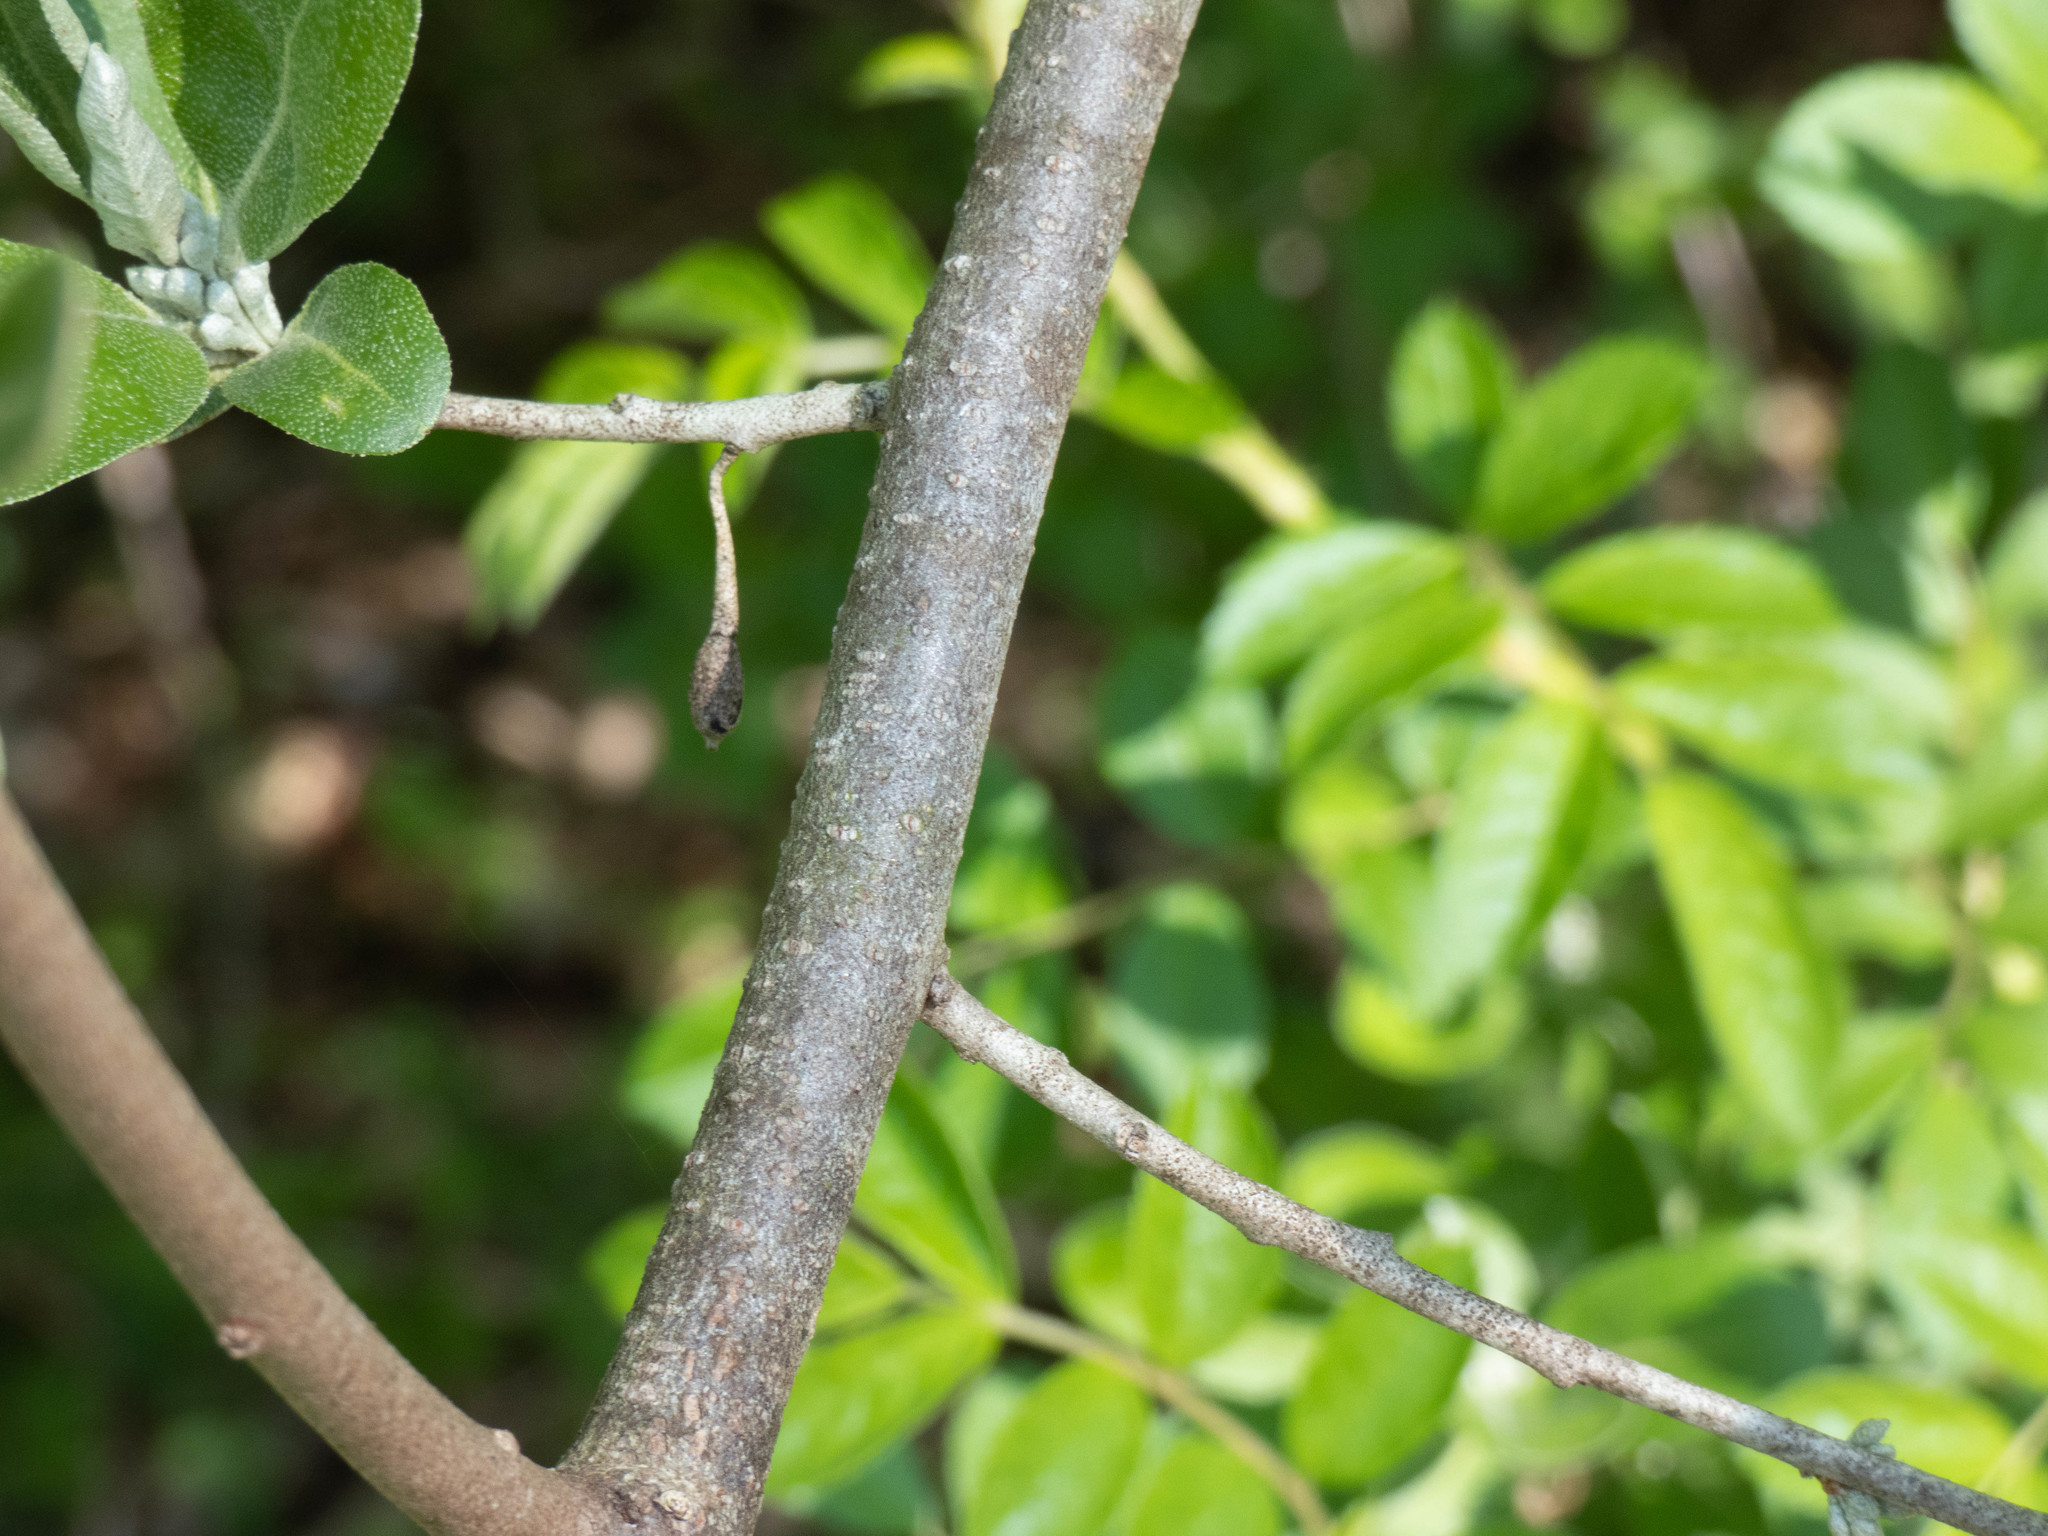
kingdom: Plantae
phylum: Tracheophyta
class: Magnoliopsida
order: Rosales
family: Elaeagnaceae
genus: Elaeagnus
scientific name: Elaeagnus umbellata
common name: Autumn olive
